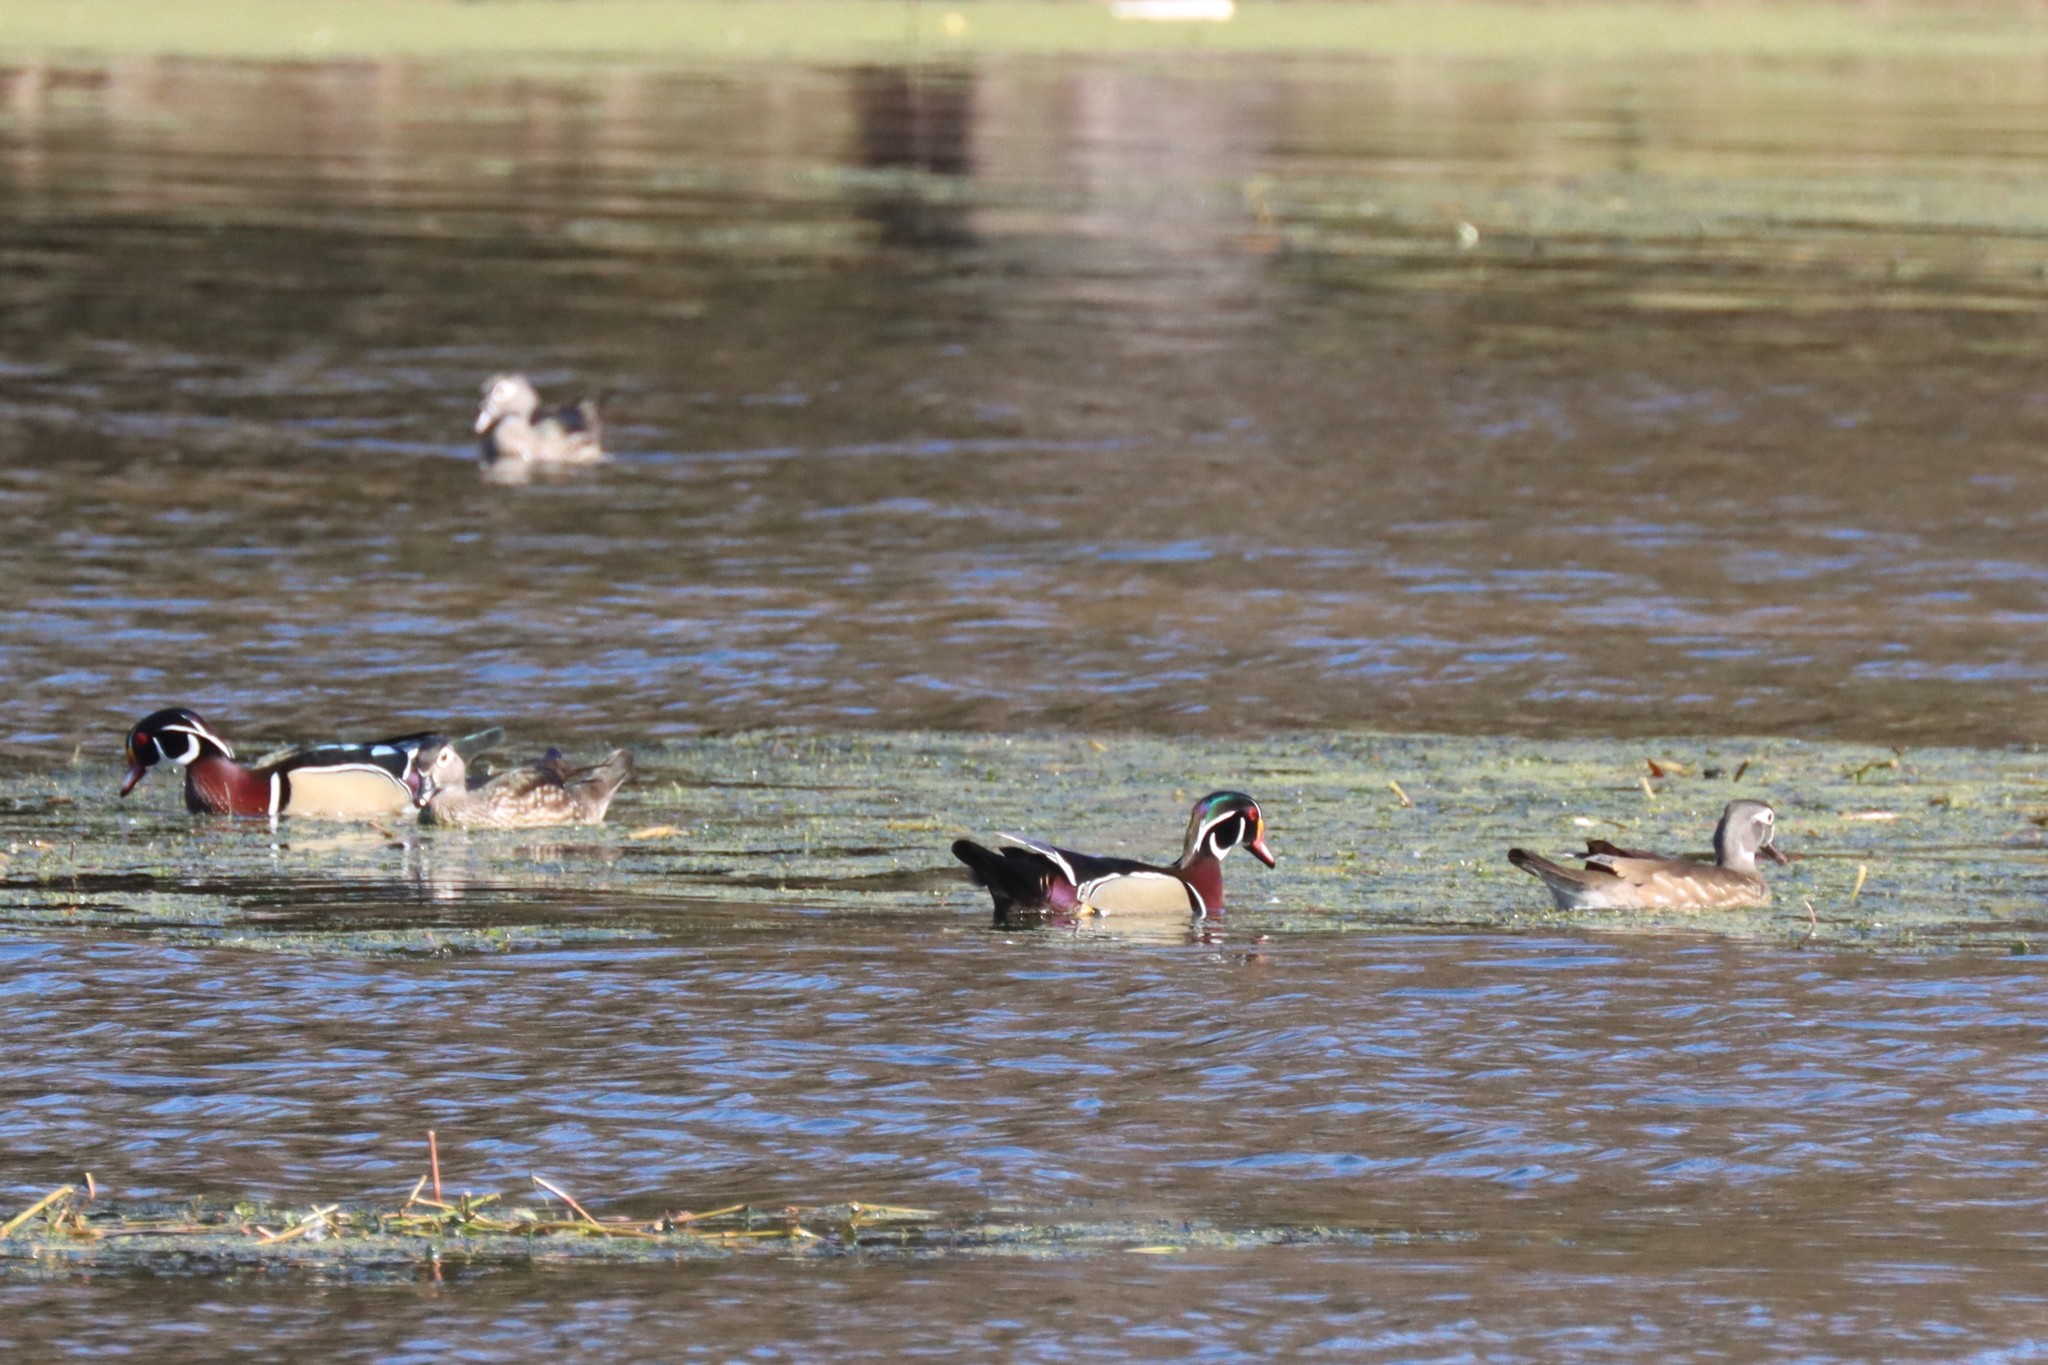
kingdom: Animalia
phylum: Chordata
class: Aves
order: Anseriformes
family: Anatidae
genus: Aix
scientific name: Aix sponsa
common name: Wood duck
